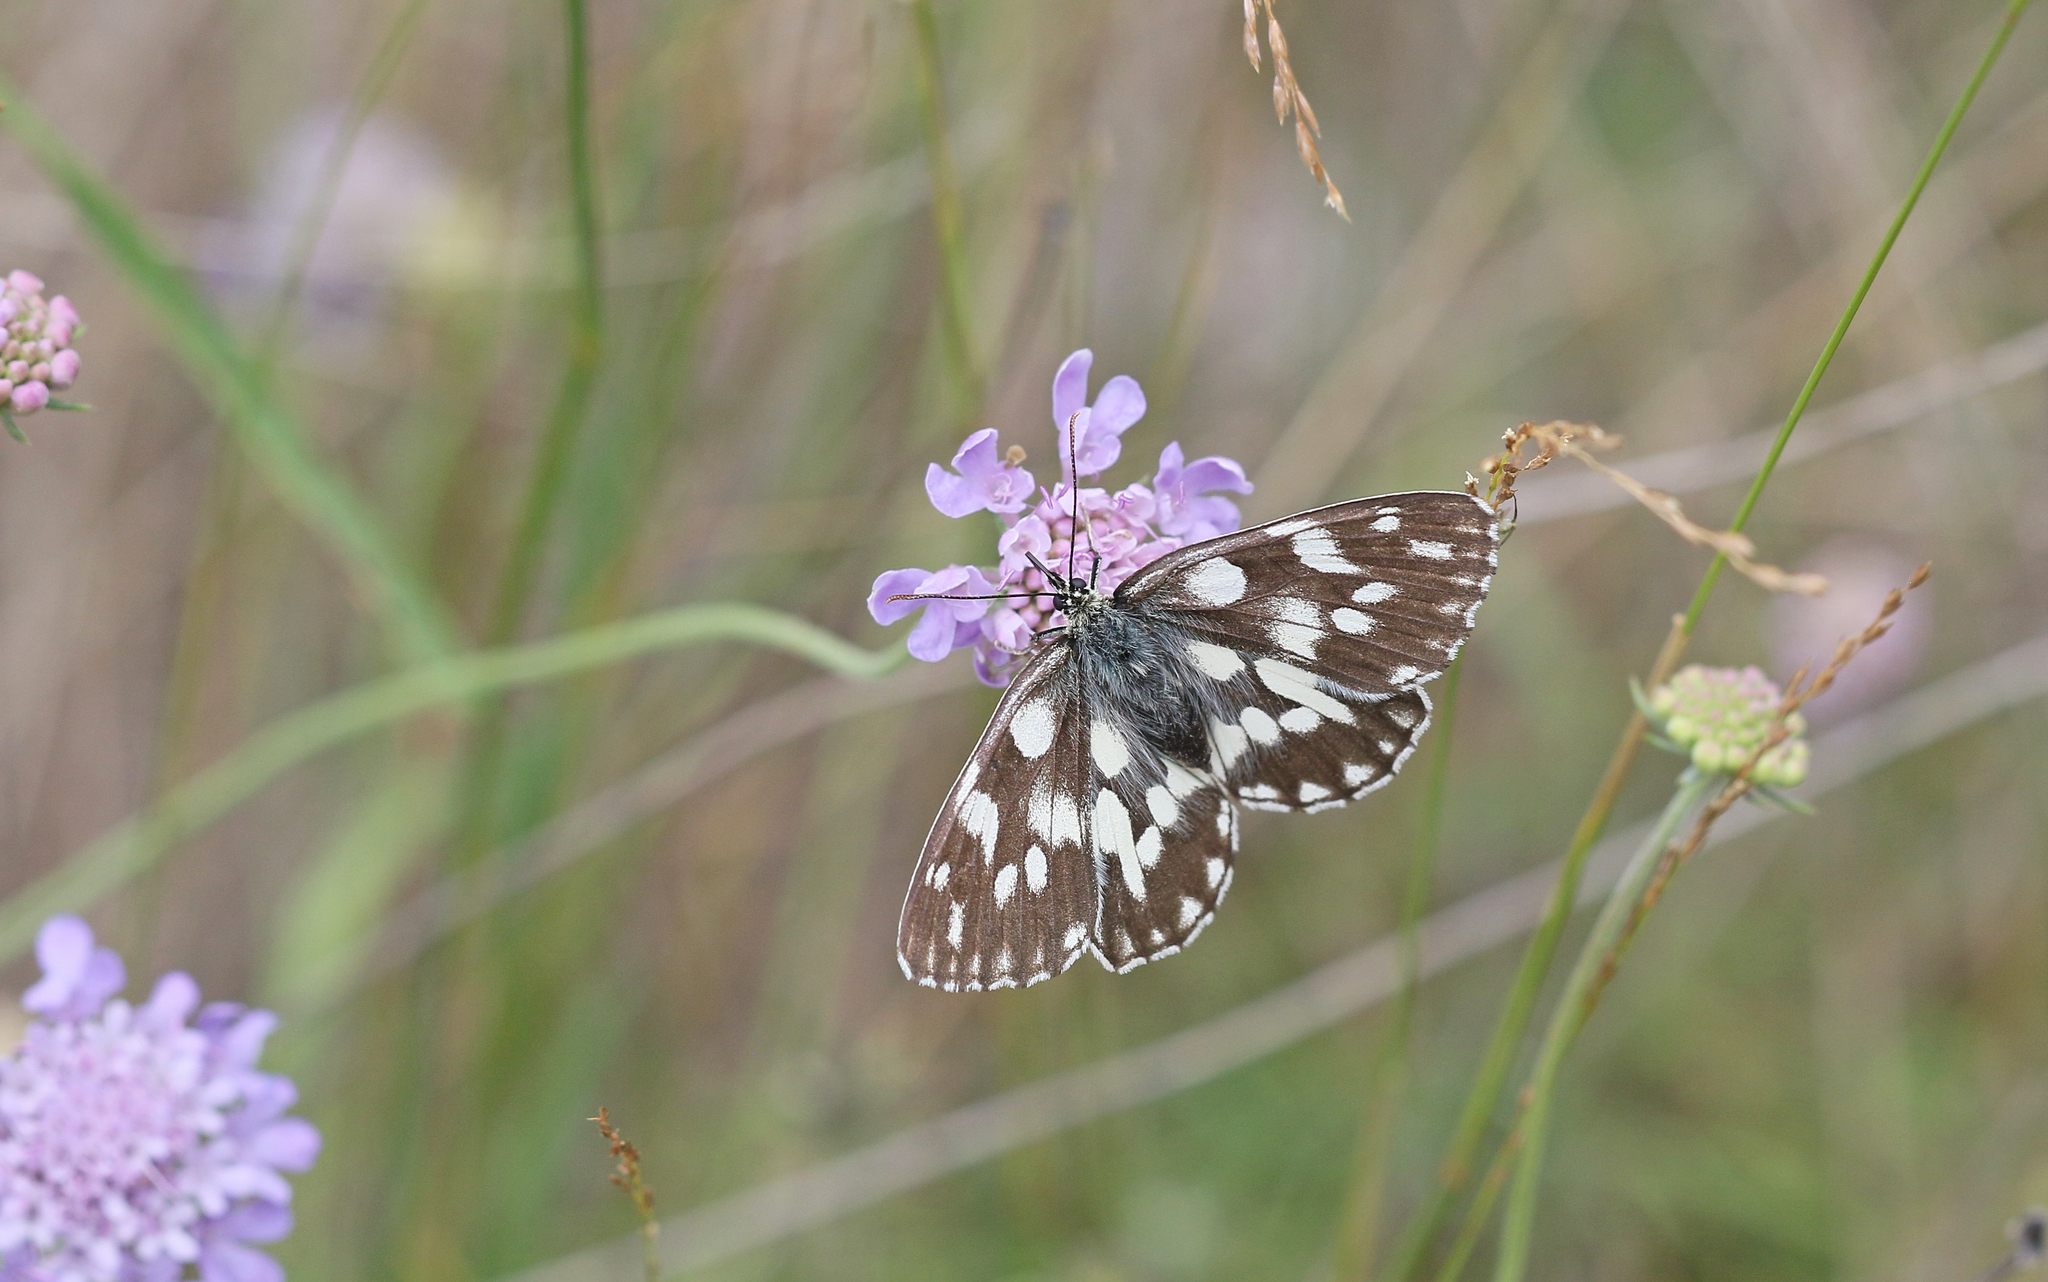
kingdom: Animalia
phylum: Arthropoda
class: Insecta
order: Lepidoptera
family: Nymphalidae
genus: Melanargia
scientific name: Melanargia galathea
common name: Marbled white
